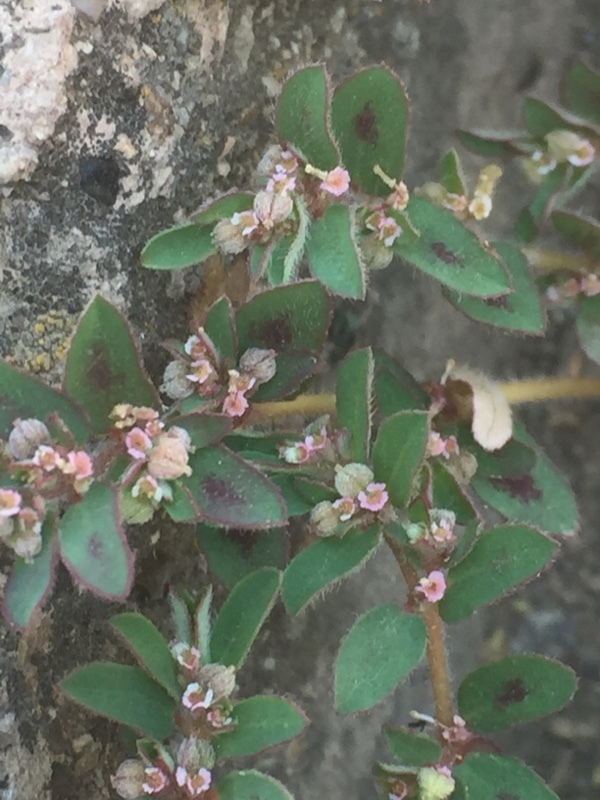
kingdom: Plantae
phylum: Tracheophyta
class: Magnoliopsida
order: Malpighiales
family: Euphorbiaceae
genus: Euphorbia
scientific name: Euphorbia maculata
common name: Spotted spurge
